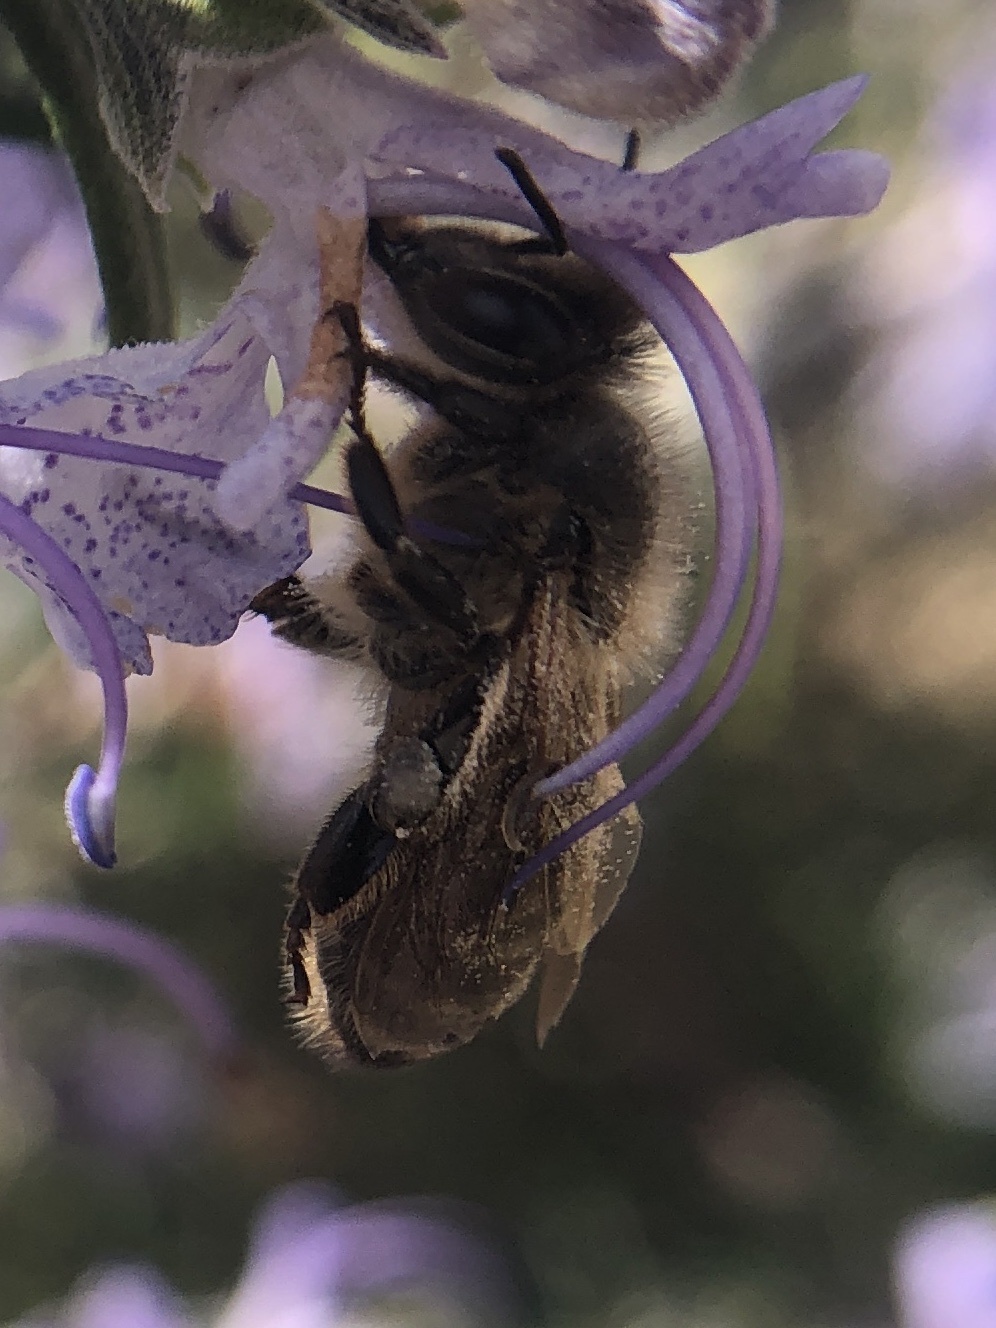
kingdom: Animalia
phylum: Arthropoda
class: Insecta
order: Hymenoptera
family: Apidae
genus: Apis
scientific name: Apis mellifera
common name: Honey bee
